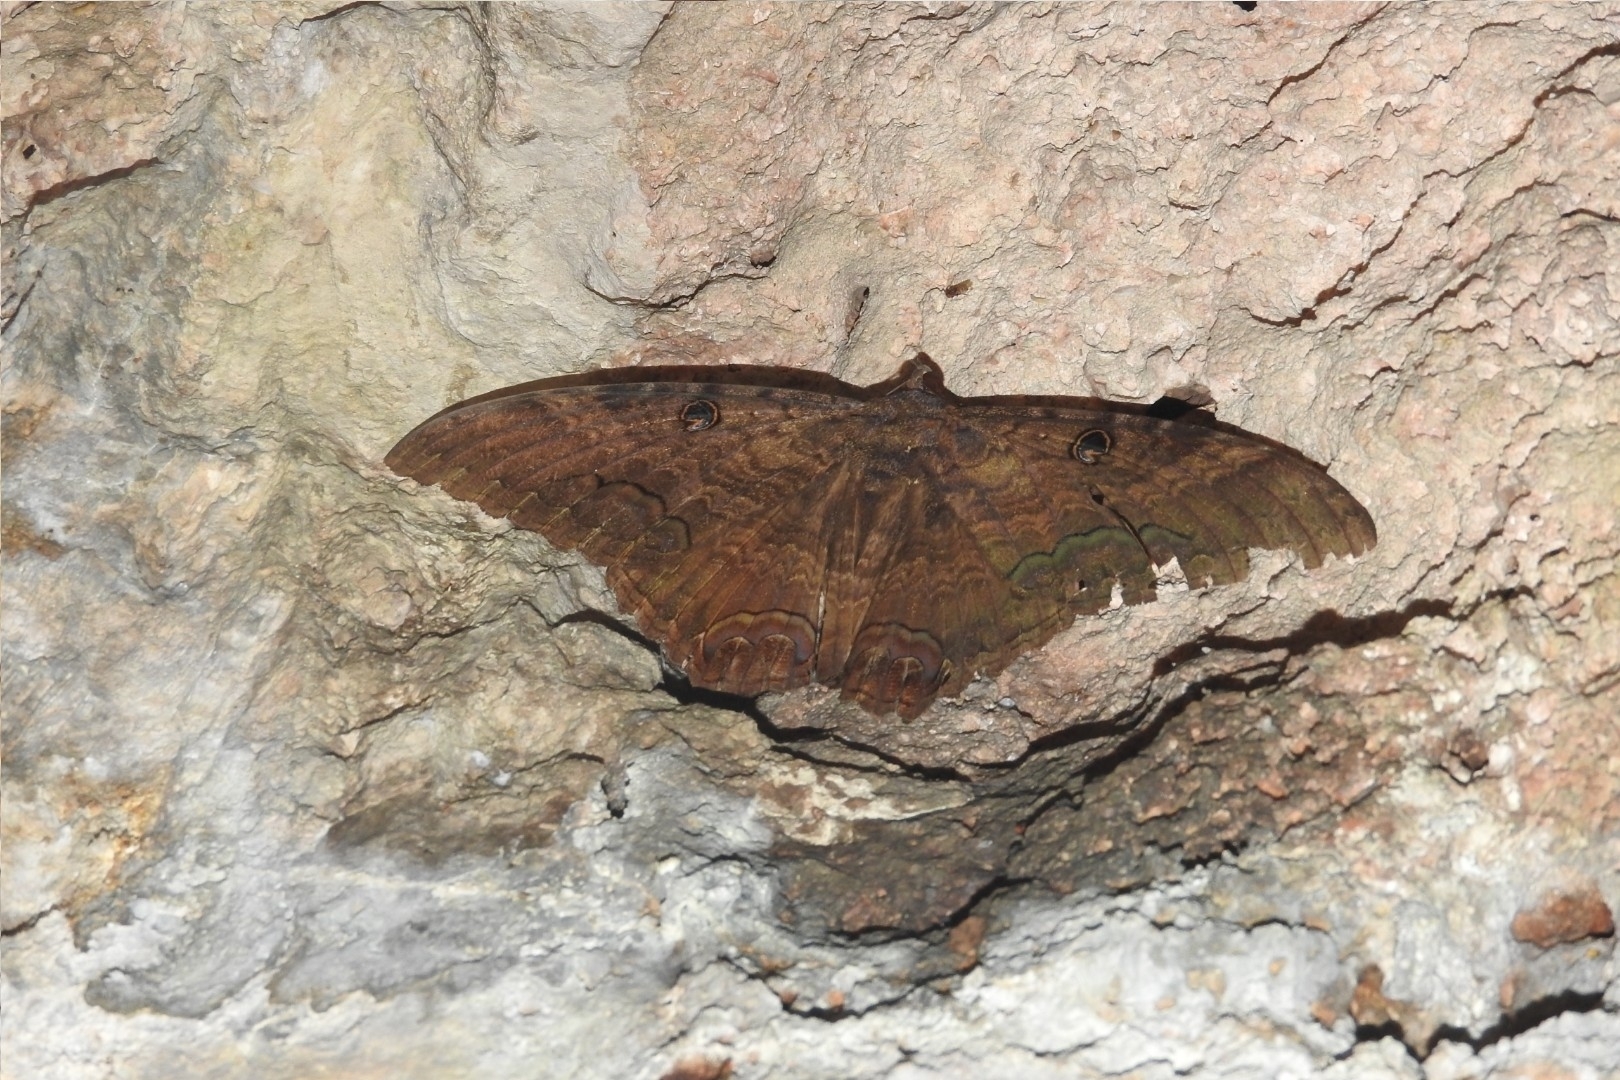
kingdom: Animalia
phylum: Arthropoda
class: Insecta
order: Lepidoptera
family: Erebidae
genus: Ascalapha
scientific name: Ascalapha odorata
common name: Black witch
